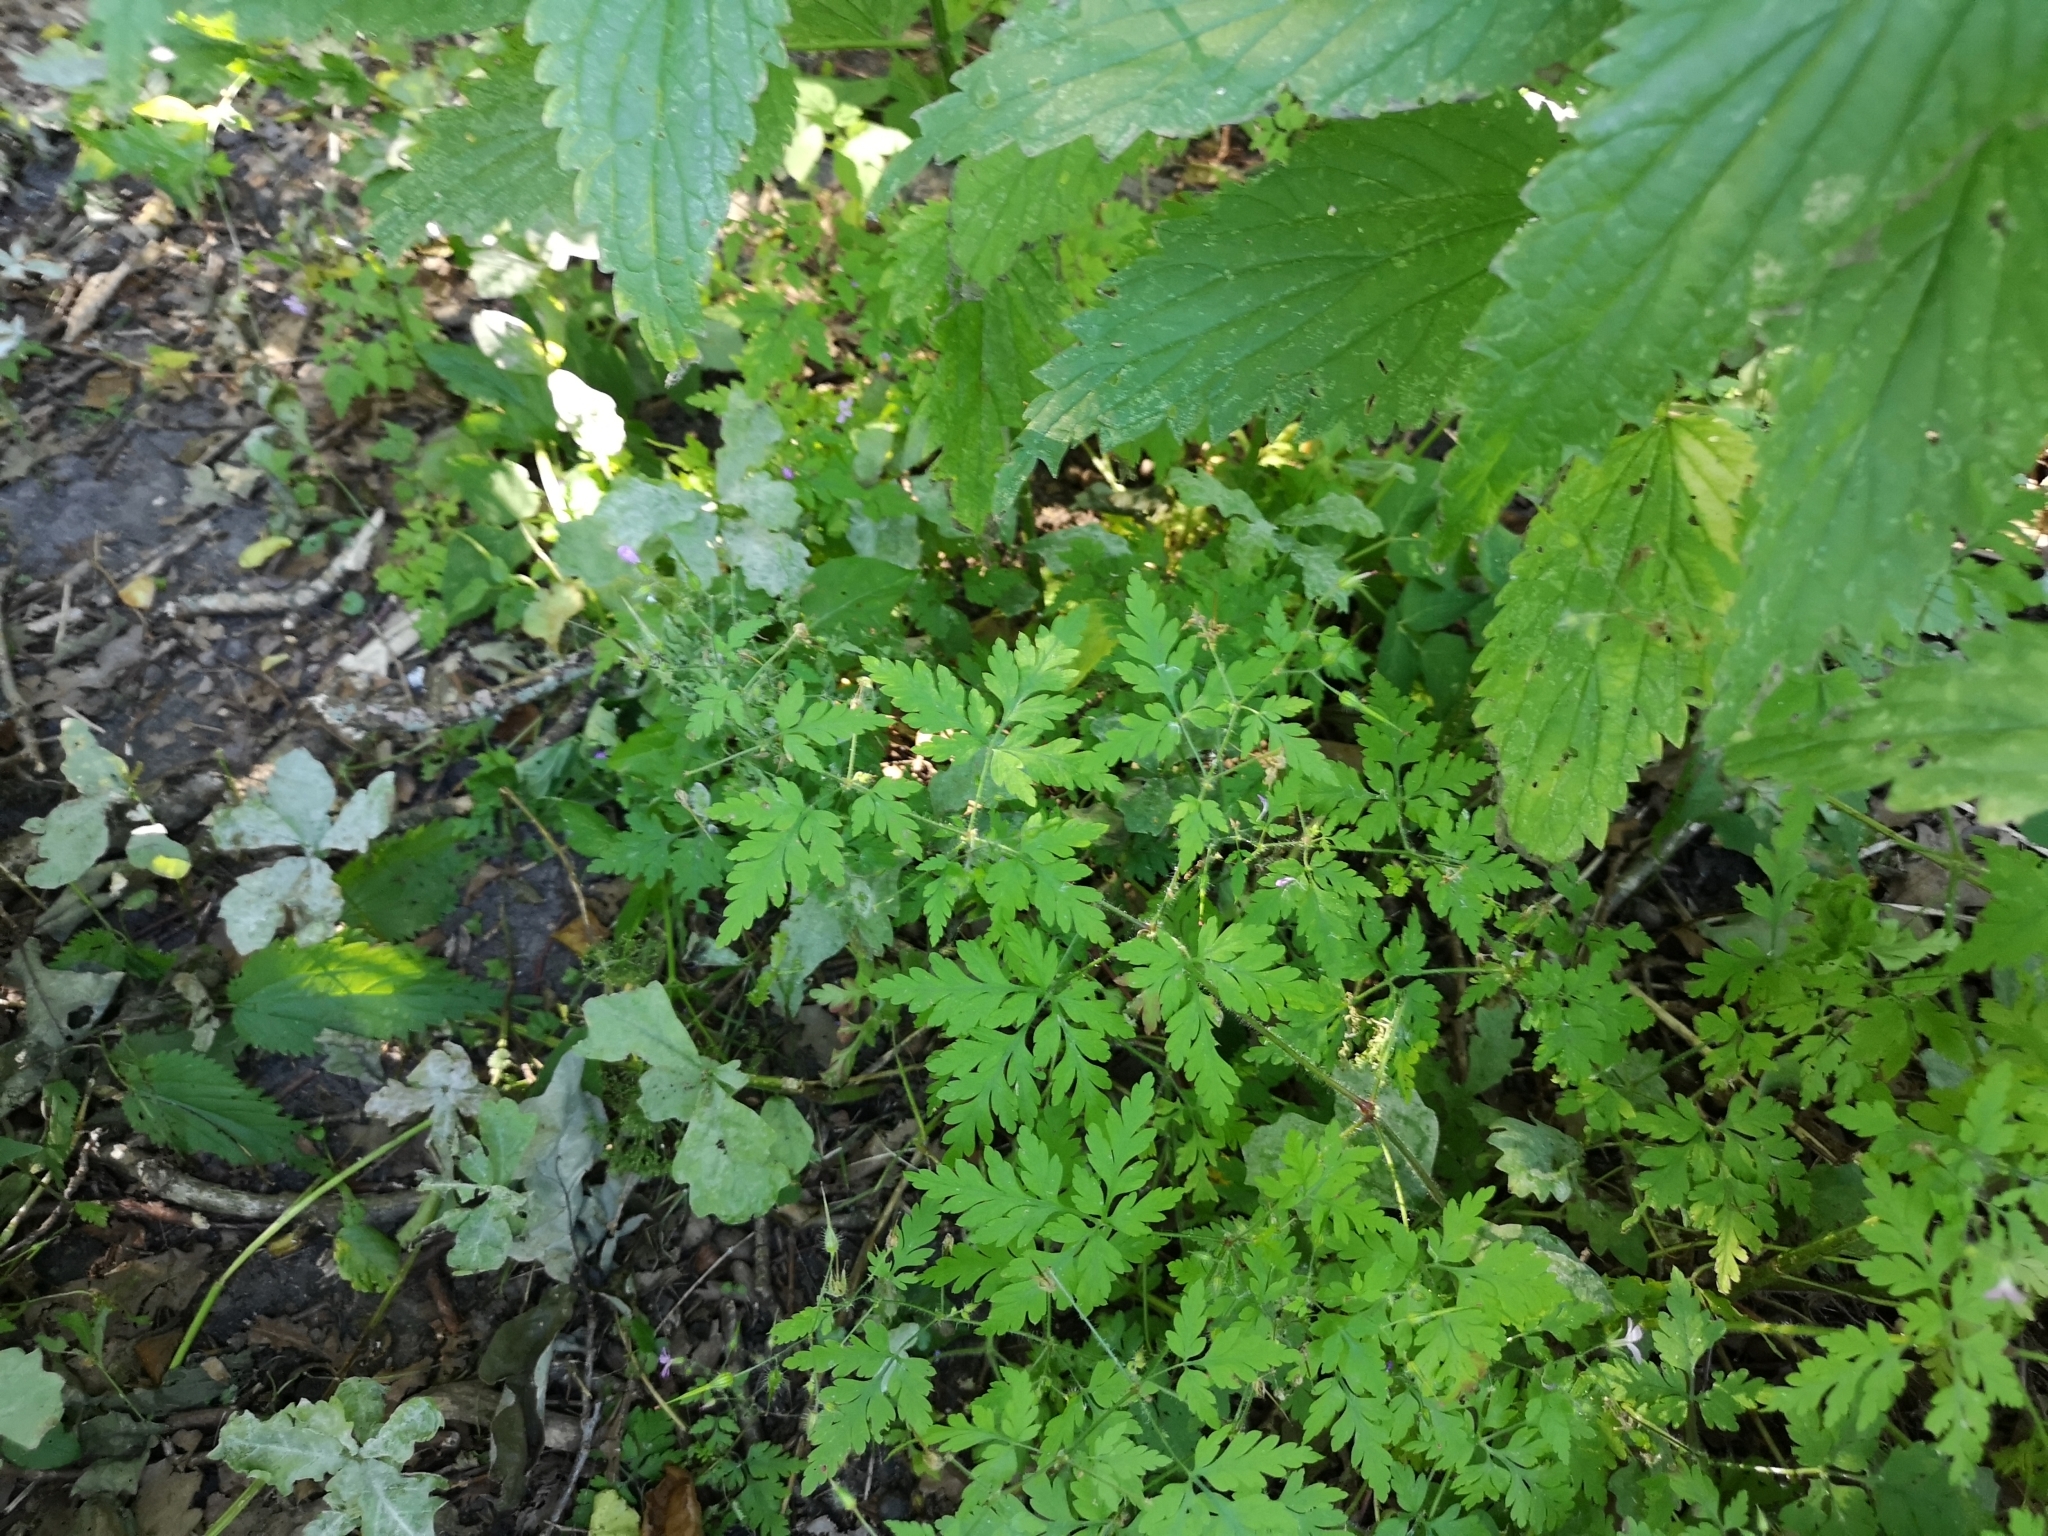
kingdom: Plantae
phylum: Tracheophyta
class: Magnoliopsida
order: Geraniales
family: Geraniaceae
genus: Geranium
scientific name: Geranium robertianum
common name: Herb-robert
